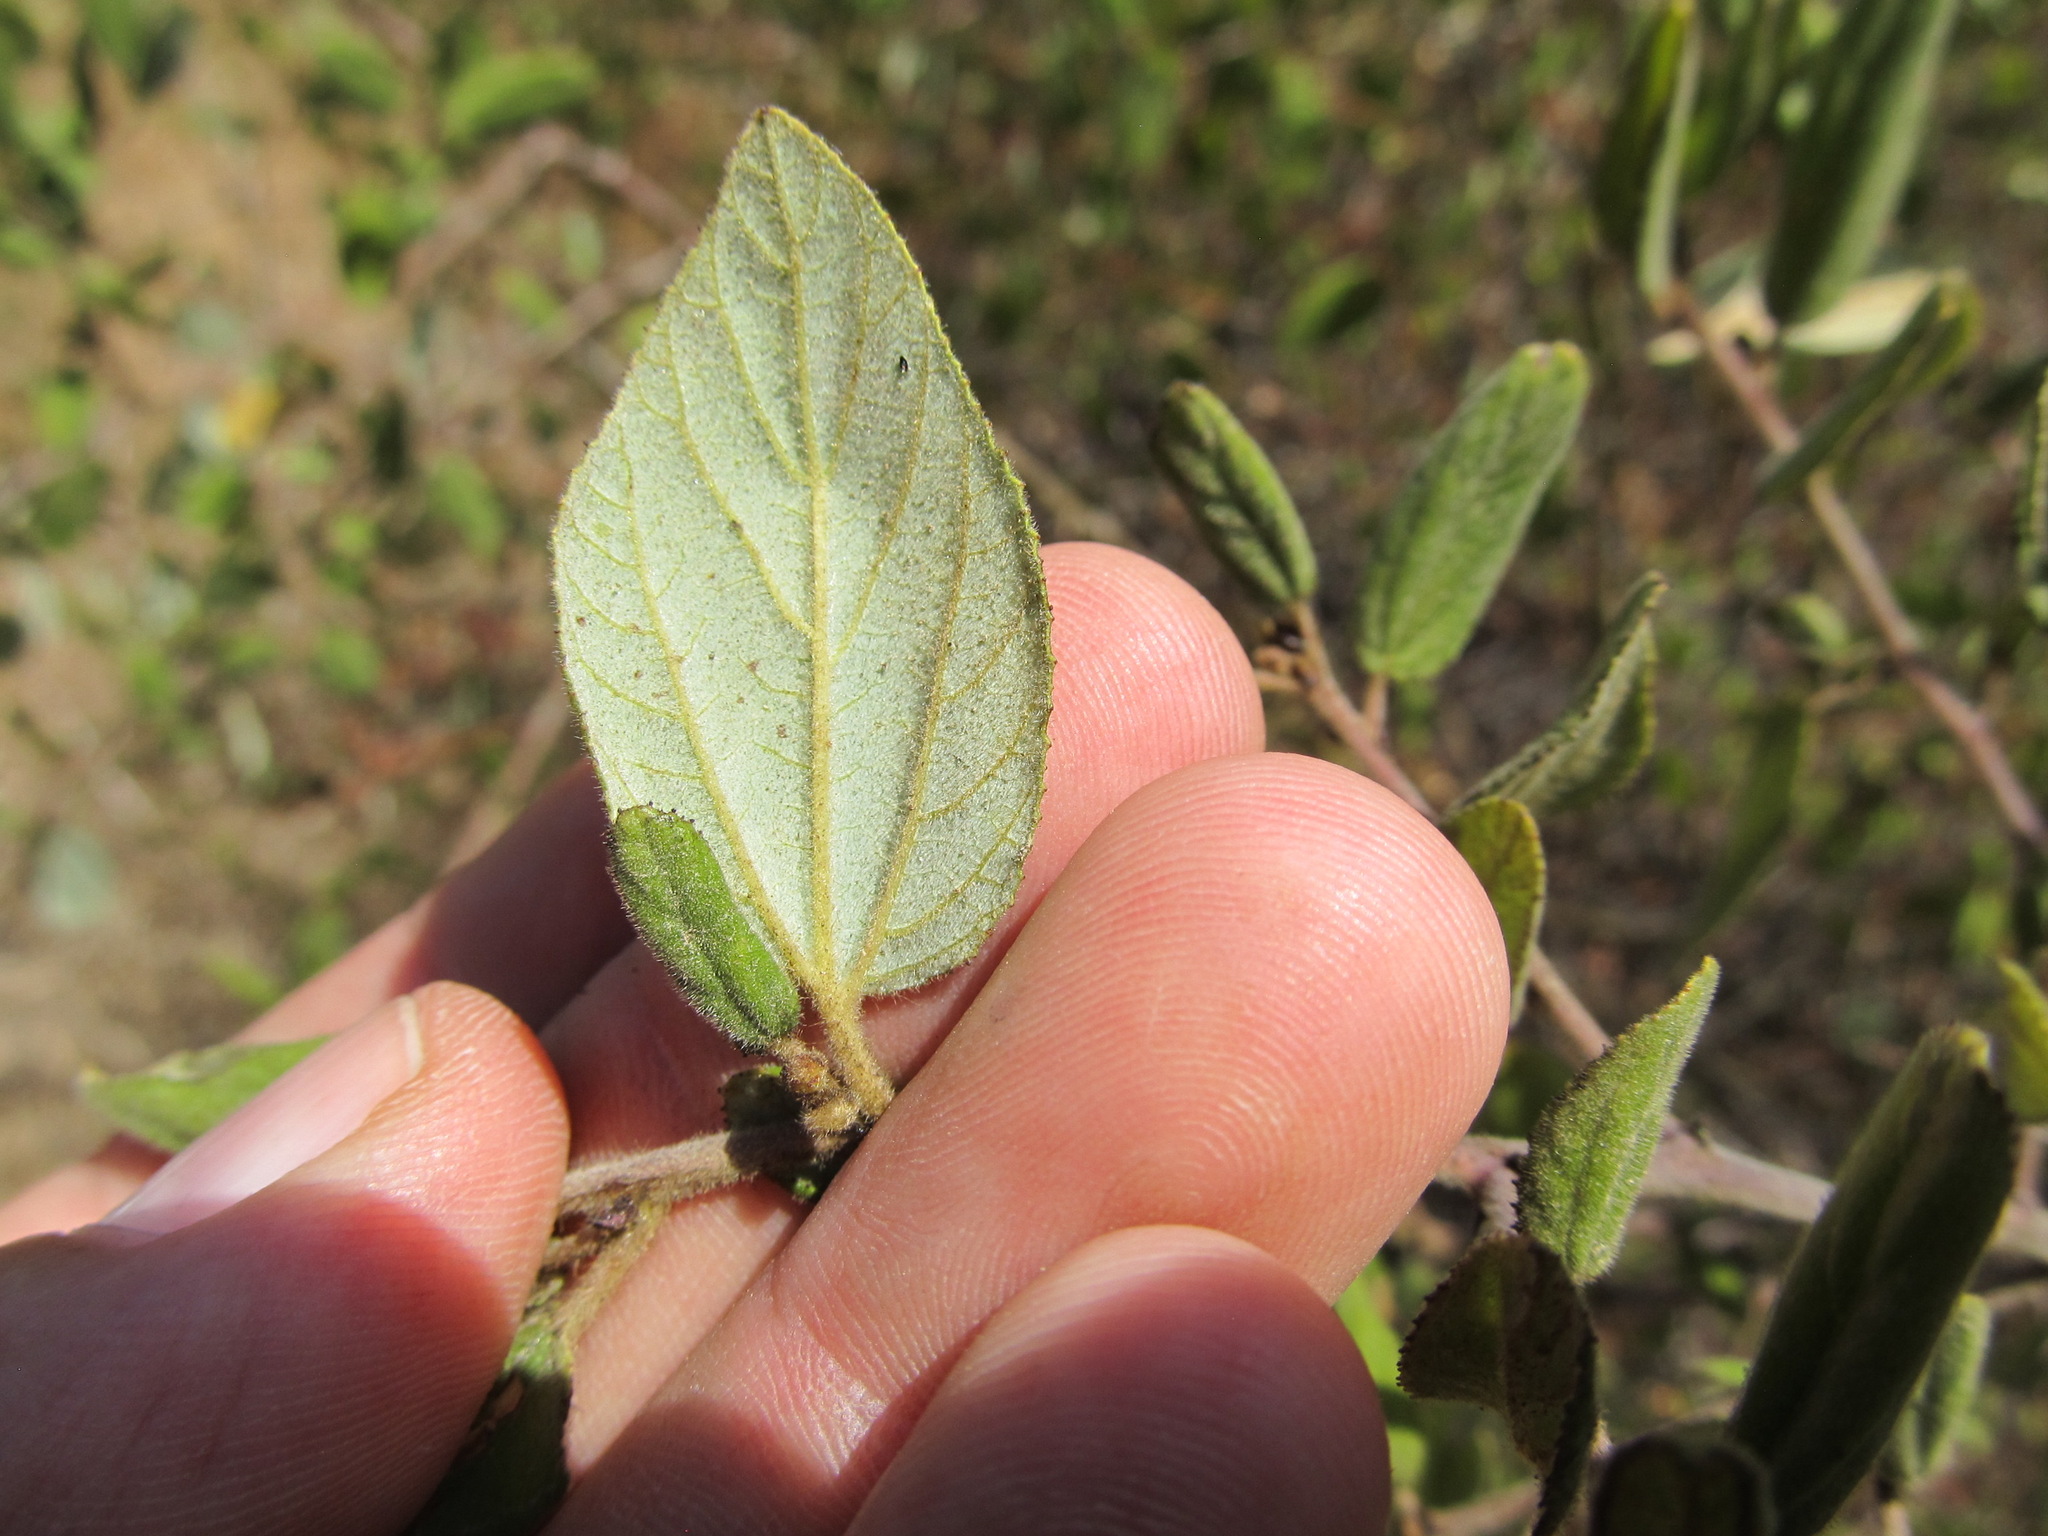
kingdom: Plantae
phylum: Tracheophyta
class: Magnoliopsida
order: Rosales
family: Rhamnaceae
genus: Ceanothus
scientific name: Ceanothus oliganthus
